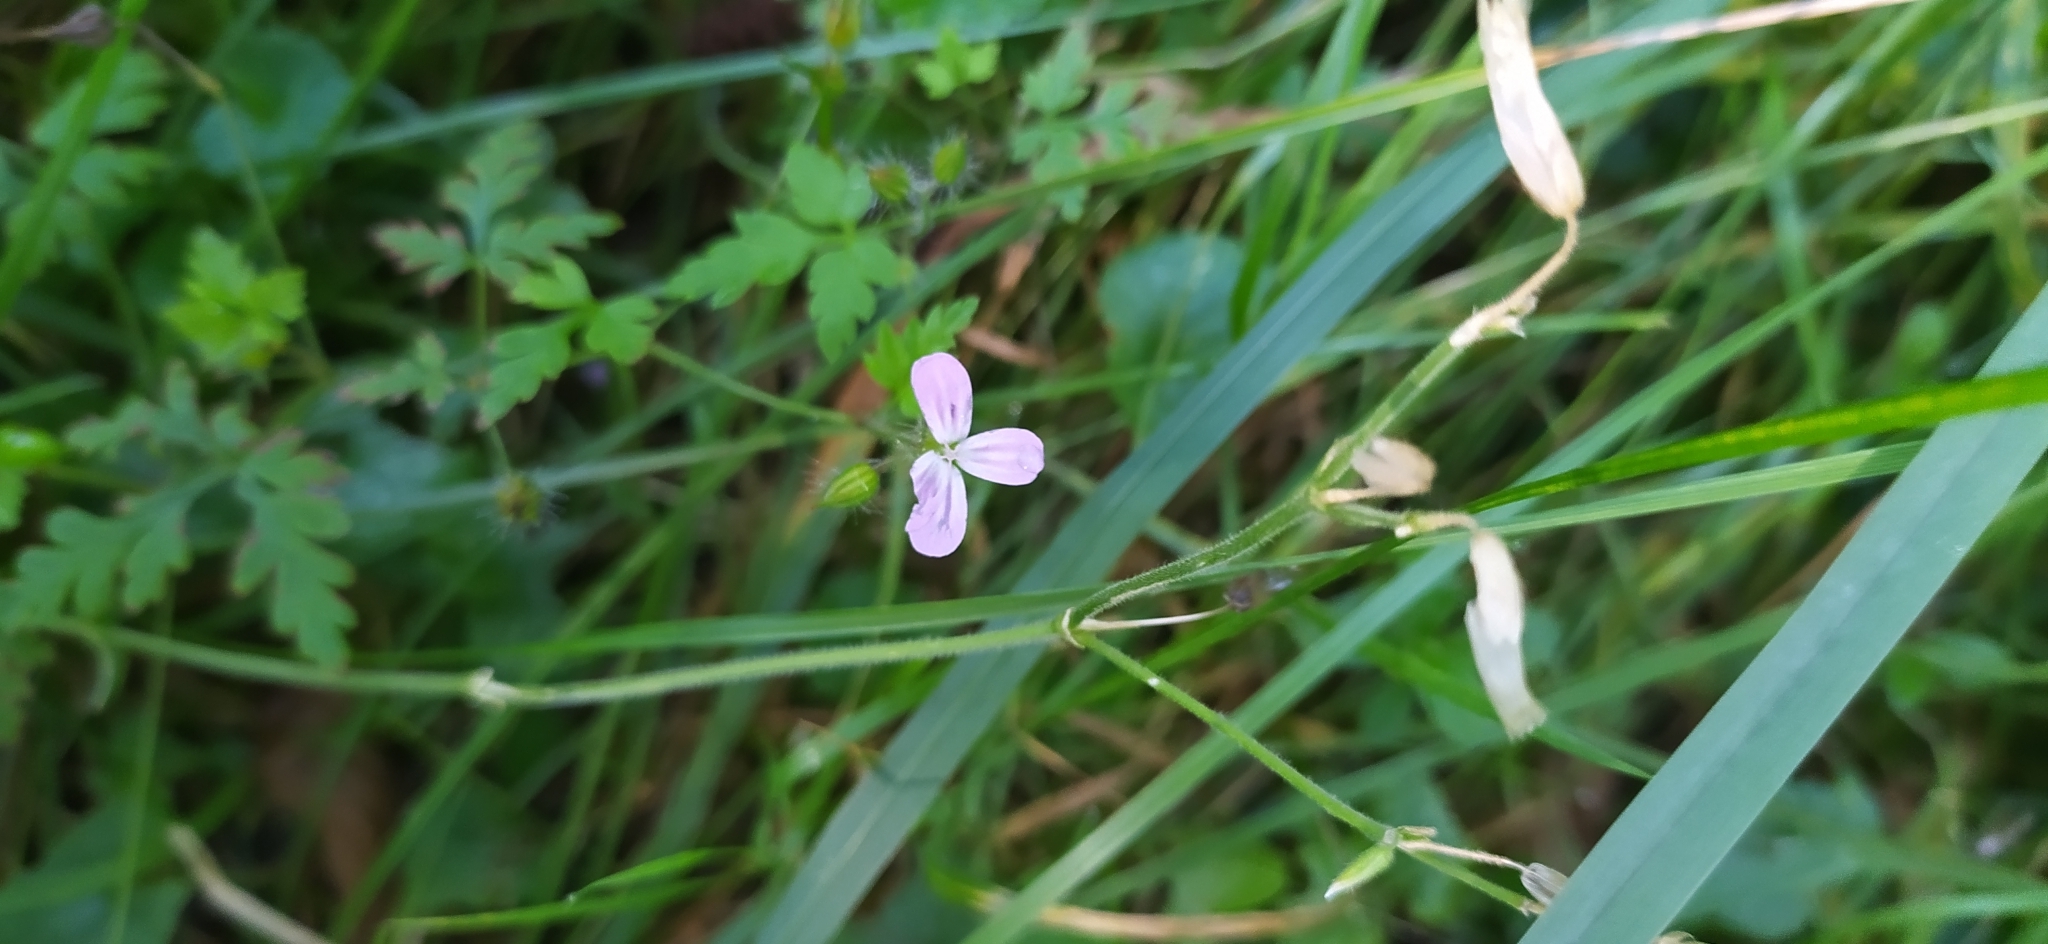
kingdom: Plantae
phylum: Tracheophyta
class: Magnoliopsida
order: Geraniales
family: Geraniaceae
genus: Geranium
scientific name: Geranium robertianum
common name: Herb-robert
